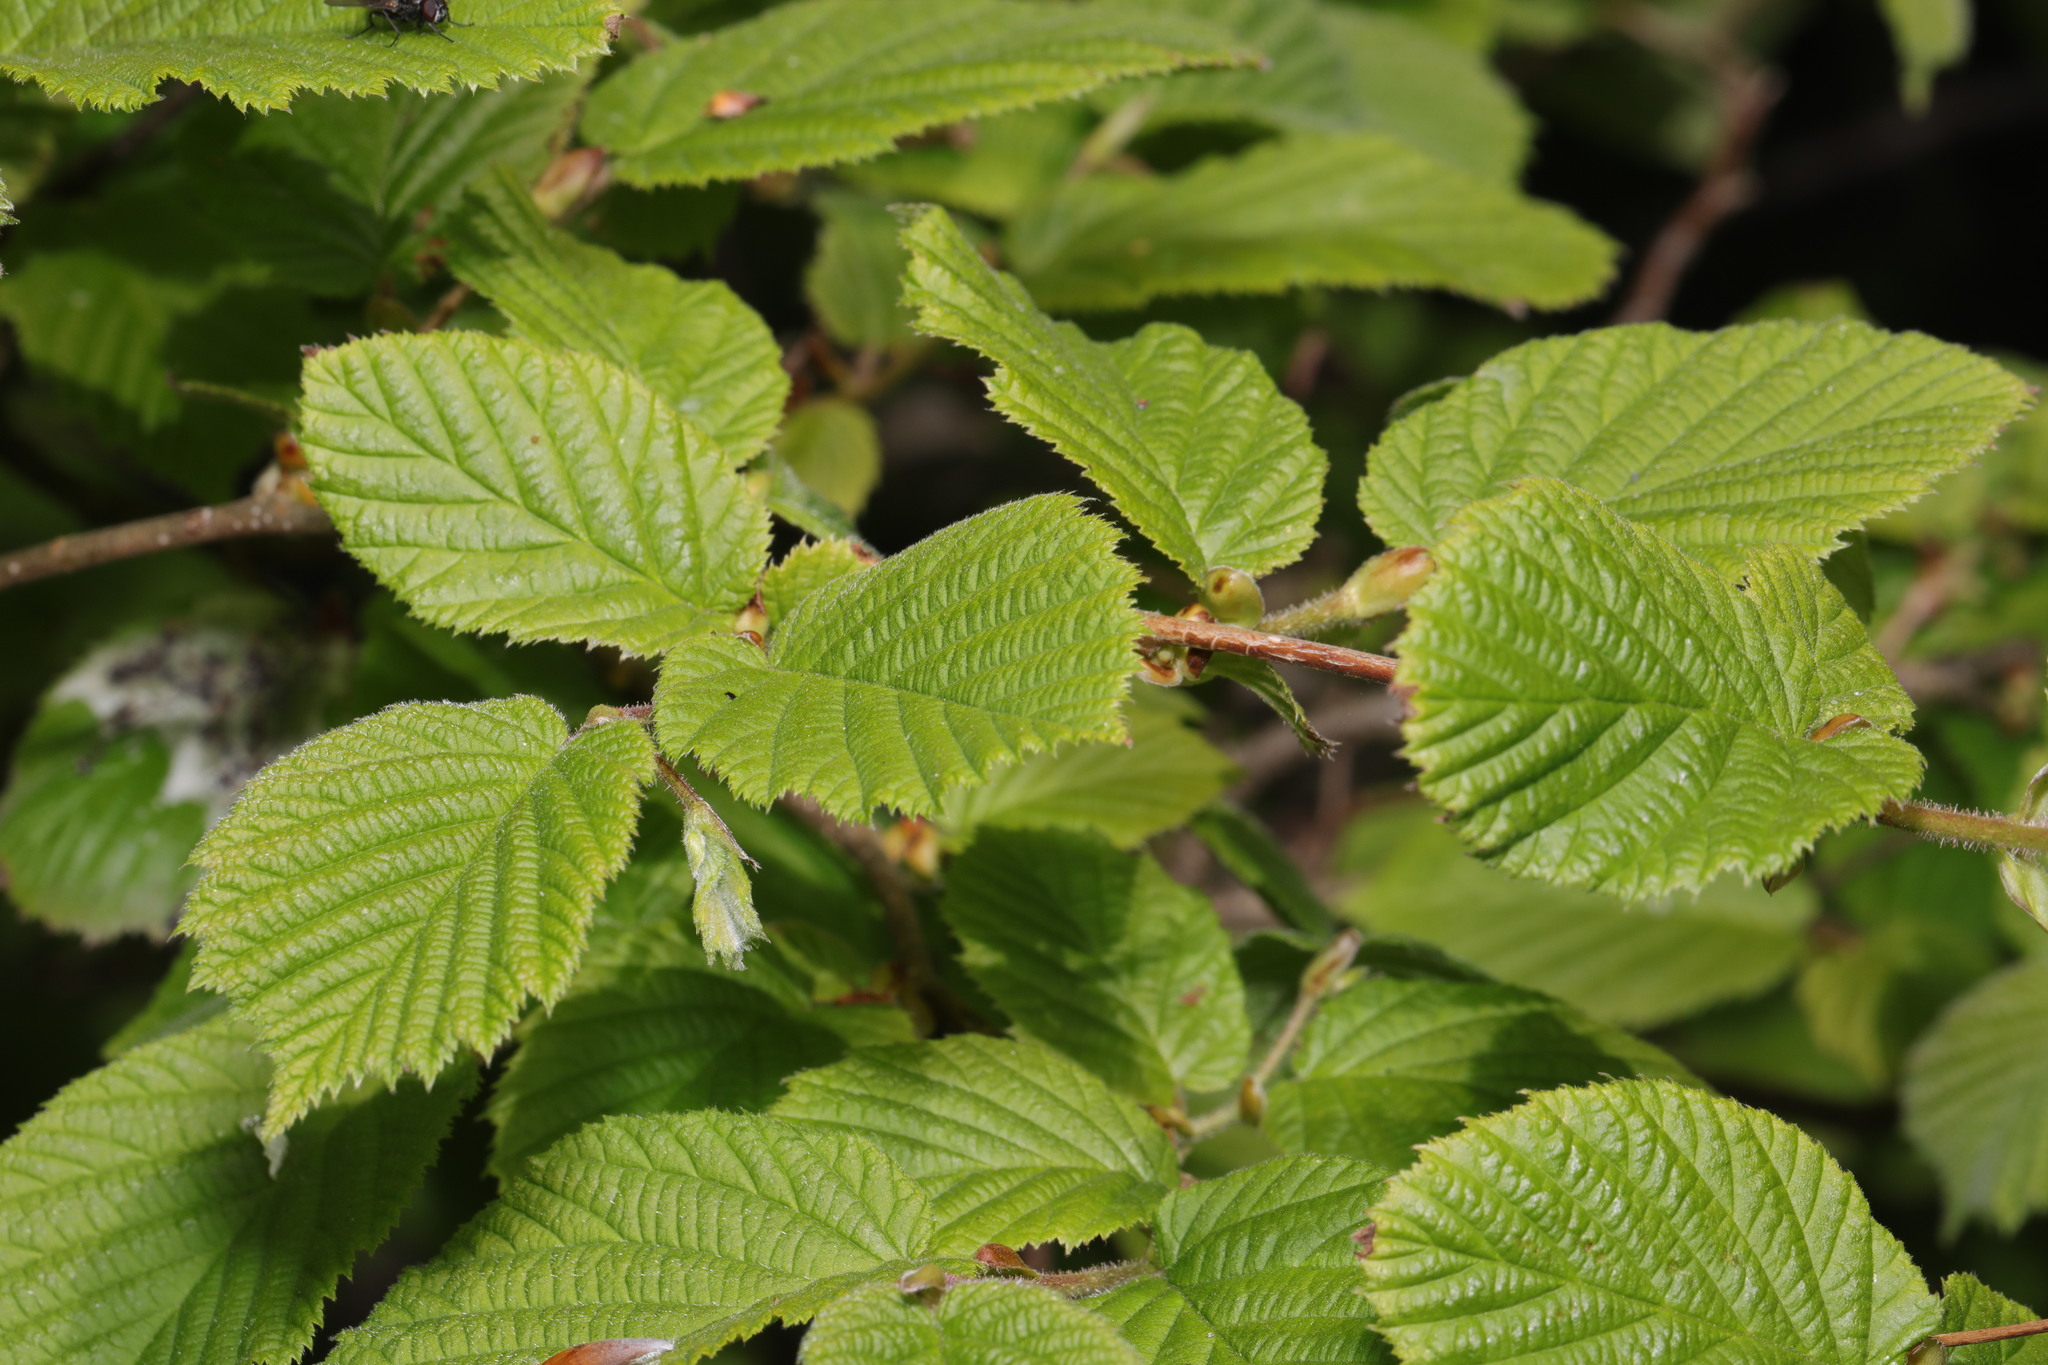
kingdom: Plantae
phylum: Tracheophyta
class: Magnoliopsida
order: Fagales
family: Betulaceae
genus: Corylus
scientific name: Corylus avellana
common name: European hazel
